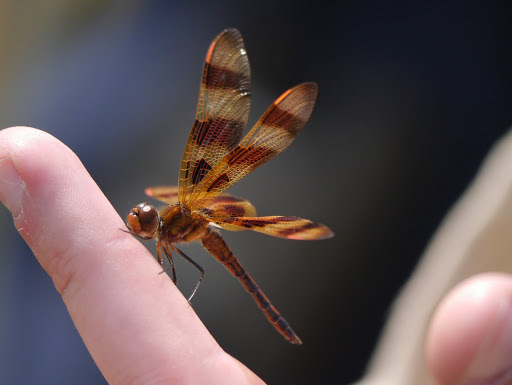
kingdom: Animalia
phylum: Arthropoda
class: Insecta
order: Odonata
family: Libellulidae
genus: Celithemis
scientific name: Celithemis eponina
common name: Halloween pennant
